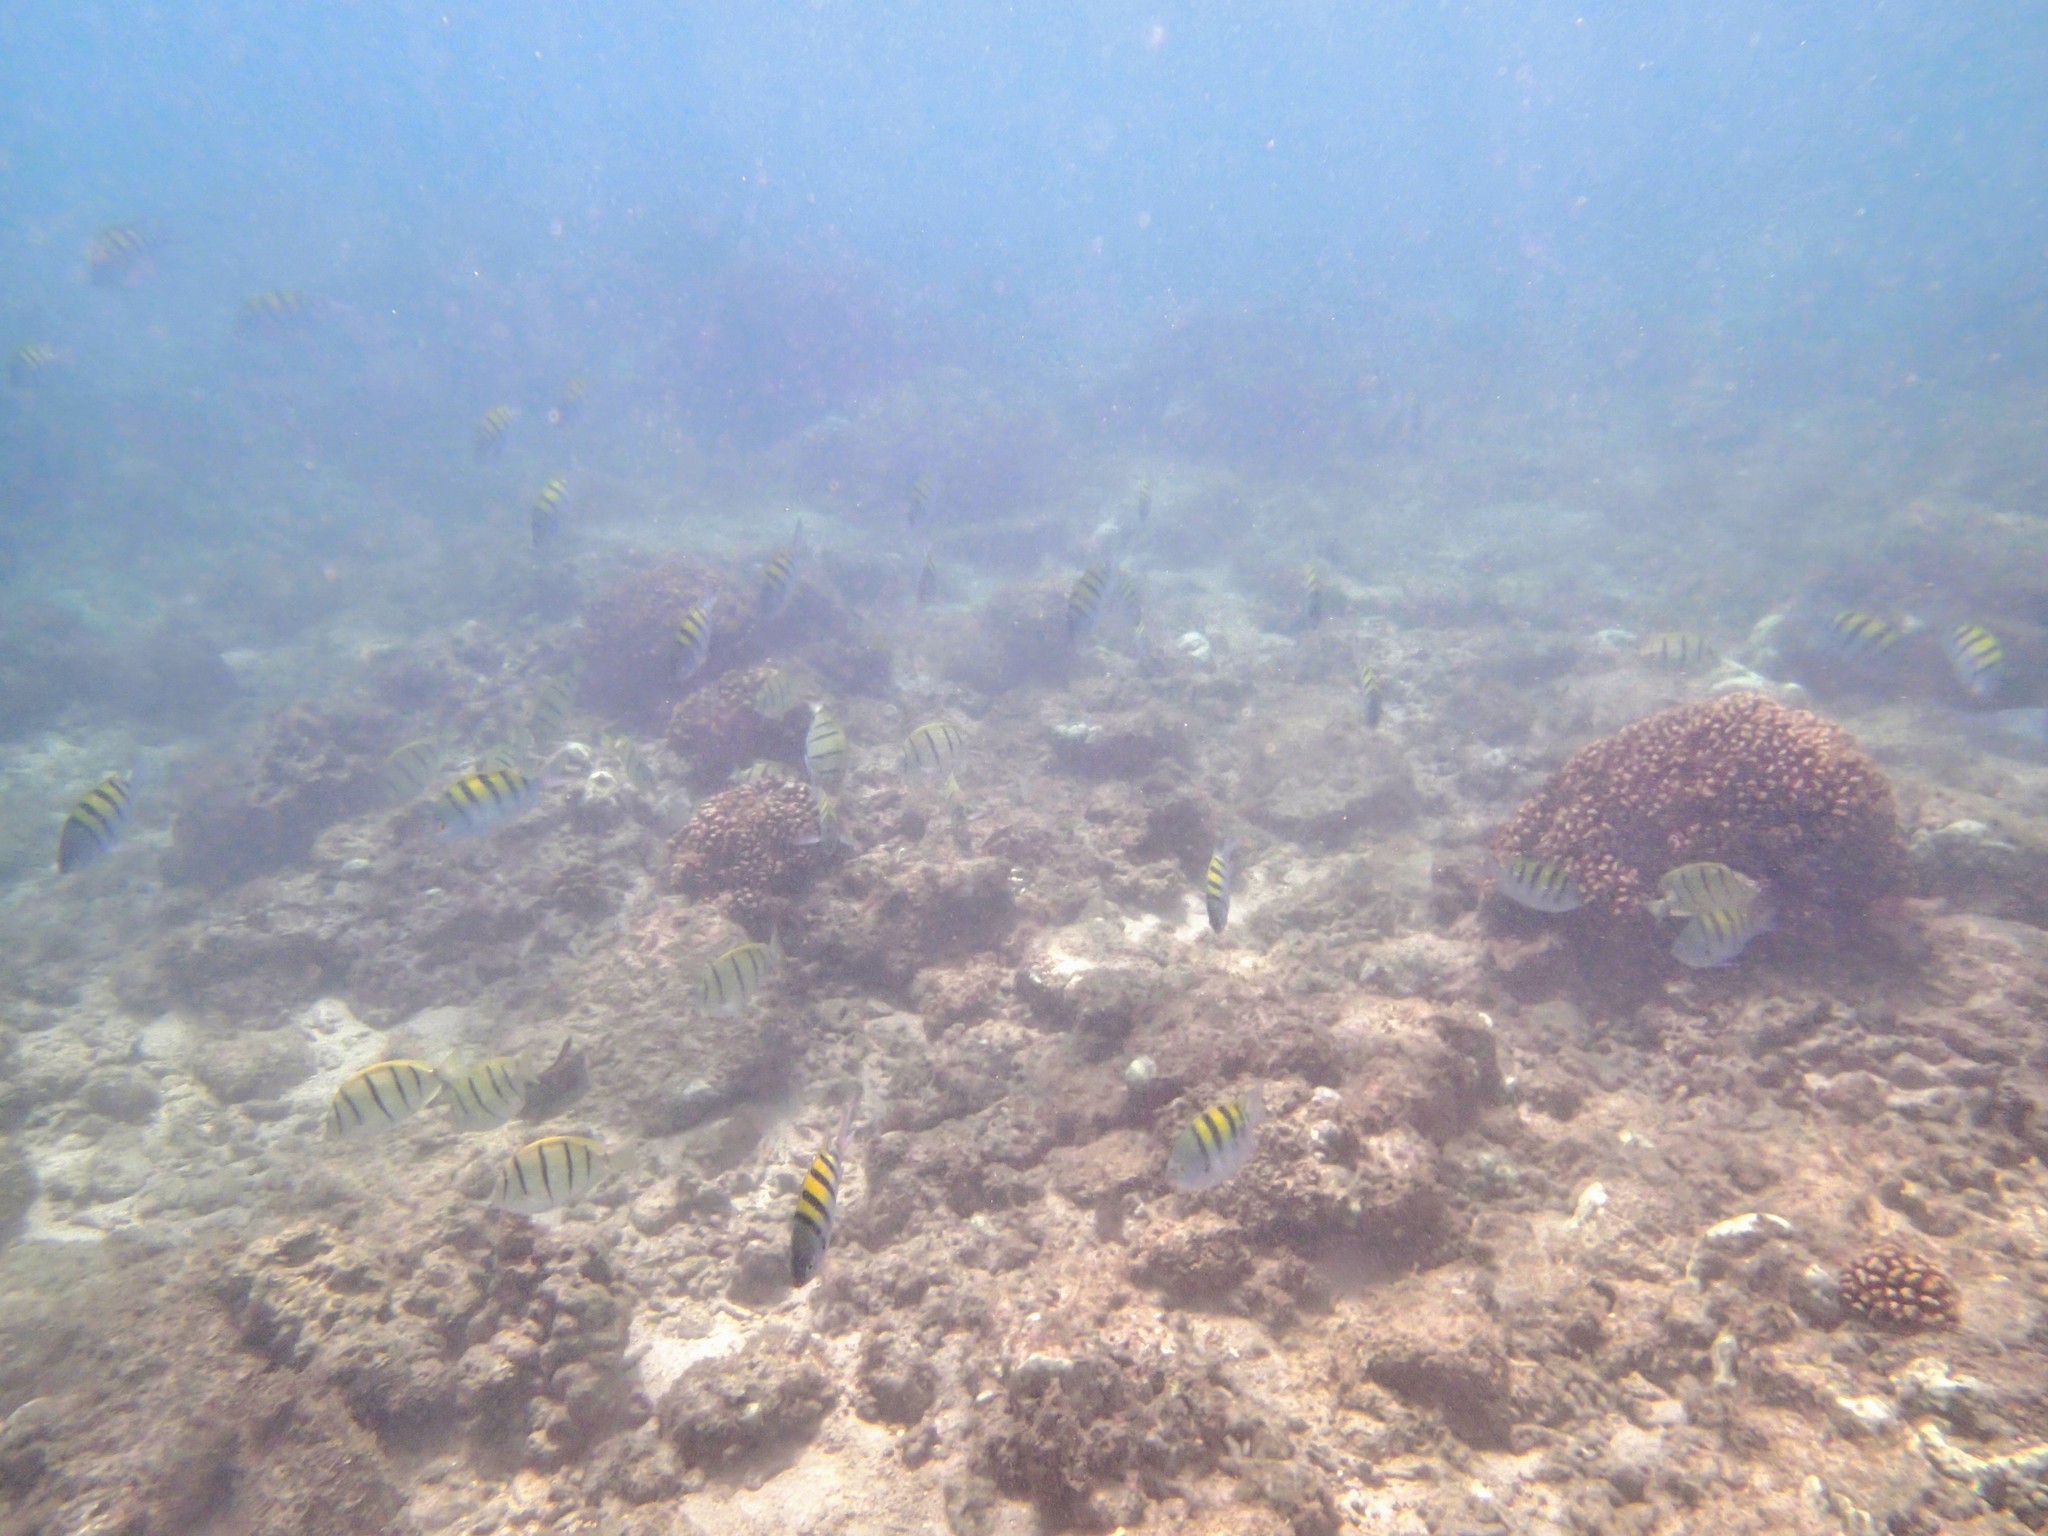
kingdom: Animalia
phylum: Chordata
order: Perciformes
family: Pomacentridae
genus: Abudefduf
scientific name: Abudefduf troschelii
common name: Panamic sergeant major
